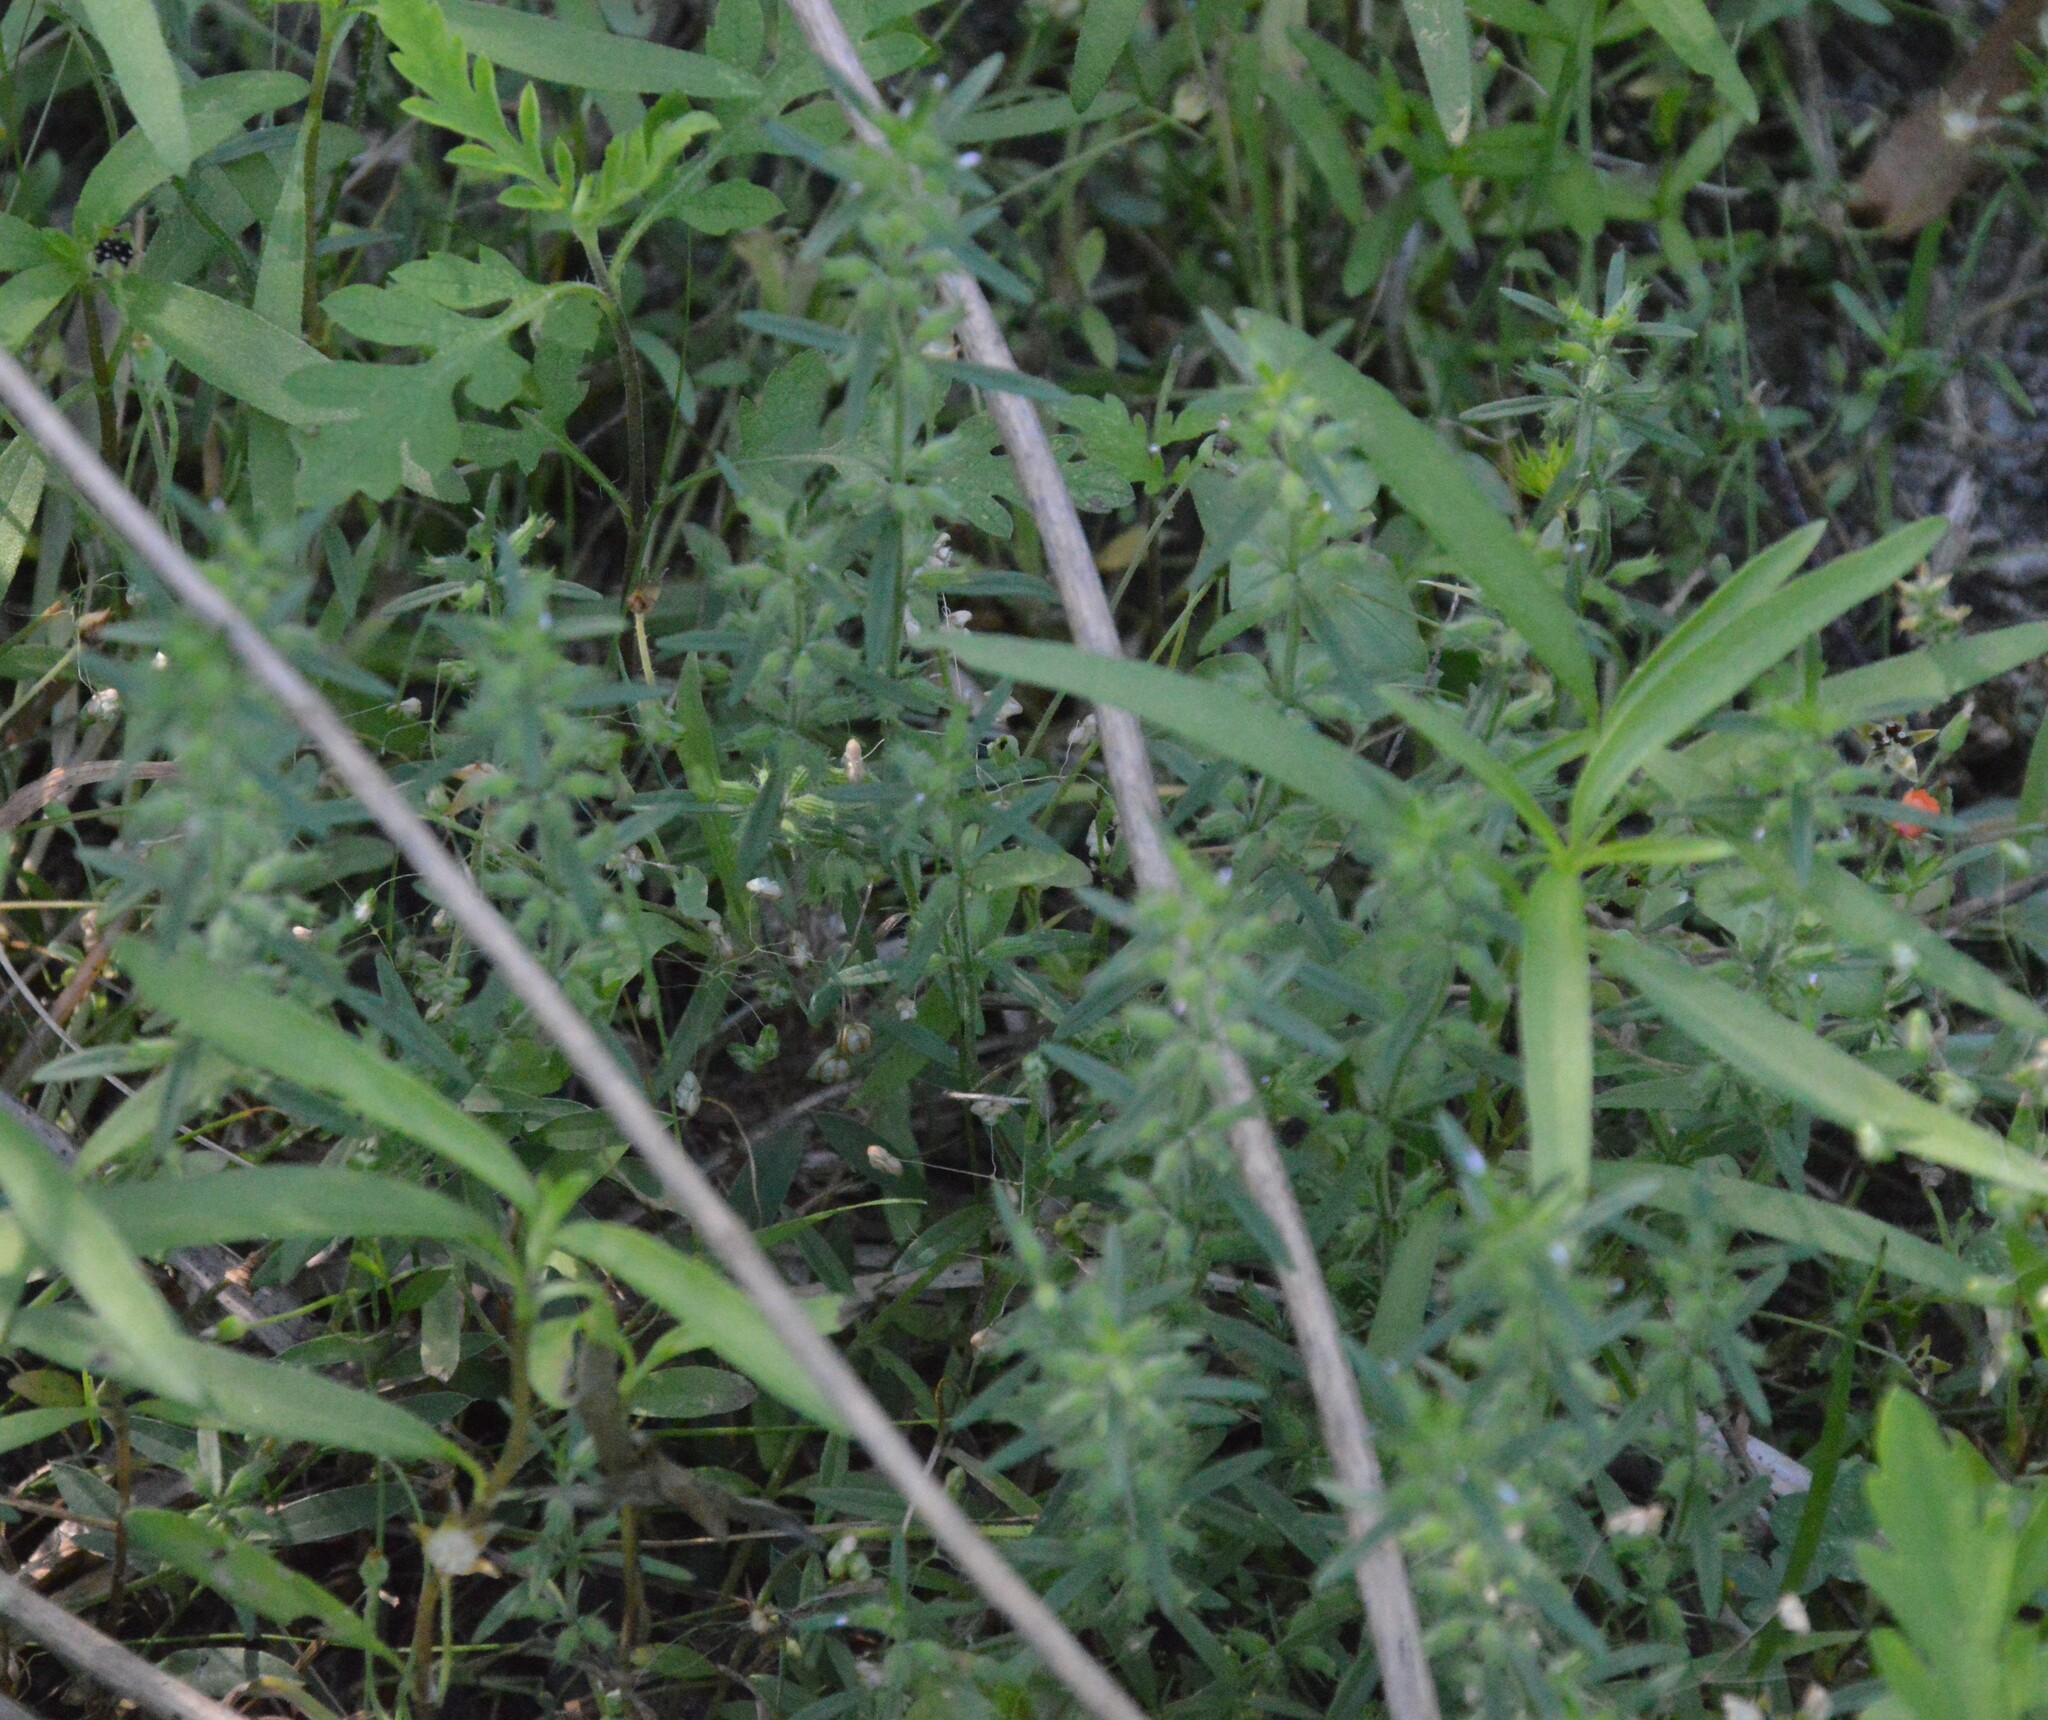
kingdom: Plantae
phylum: Tracheophyta
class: Magnoliopsida
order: Lamiales
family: Lamiaceae
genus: Hedeoma
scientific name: Hedeoma hispida
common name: Mock pennyroyal
